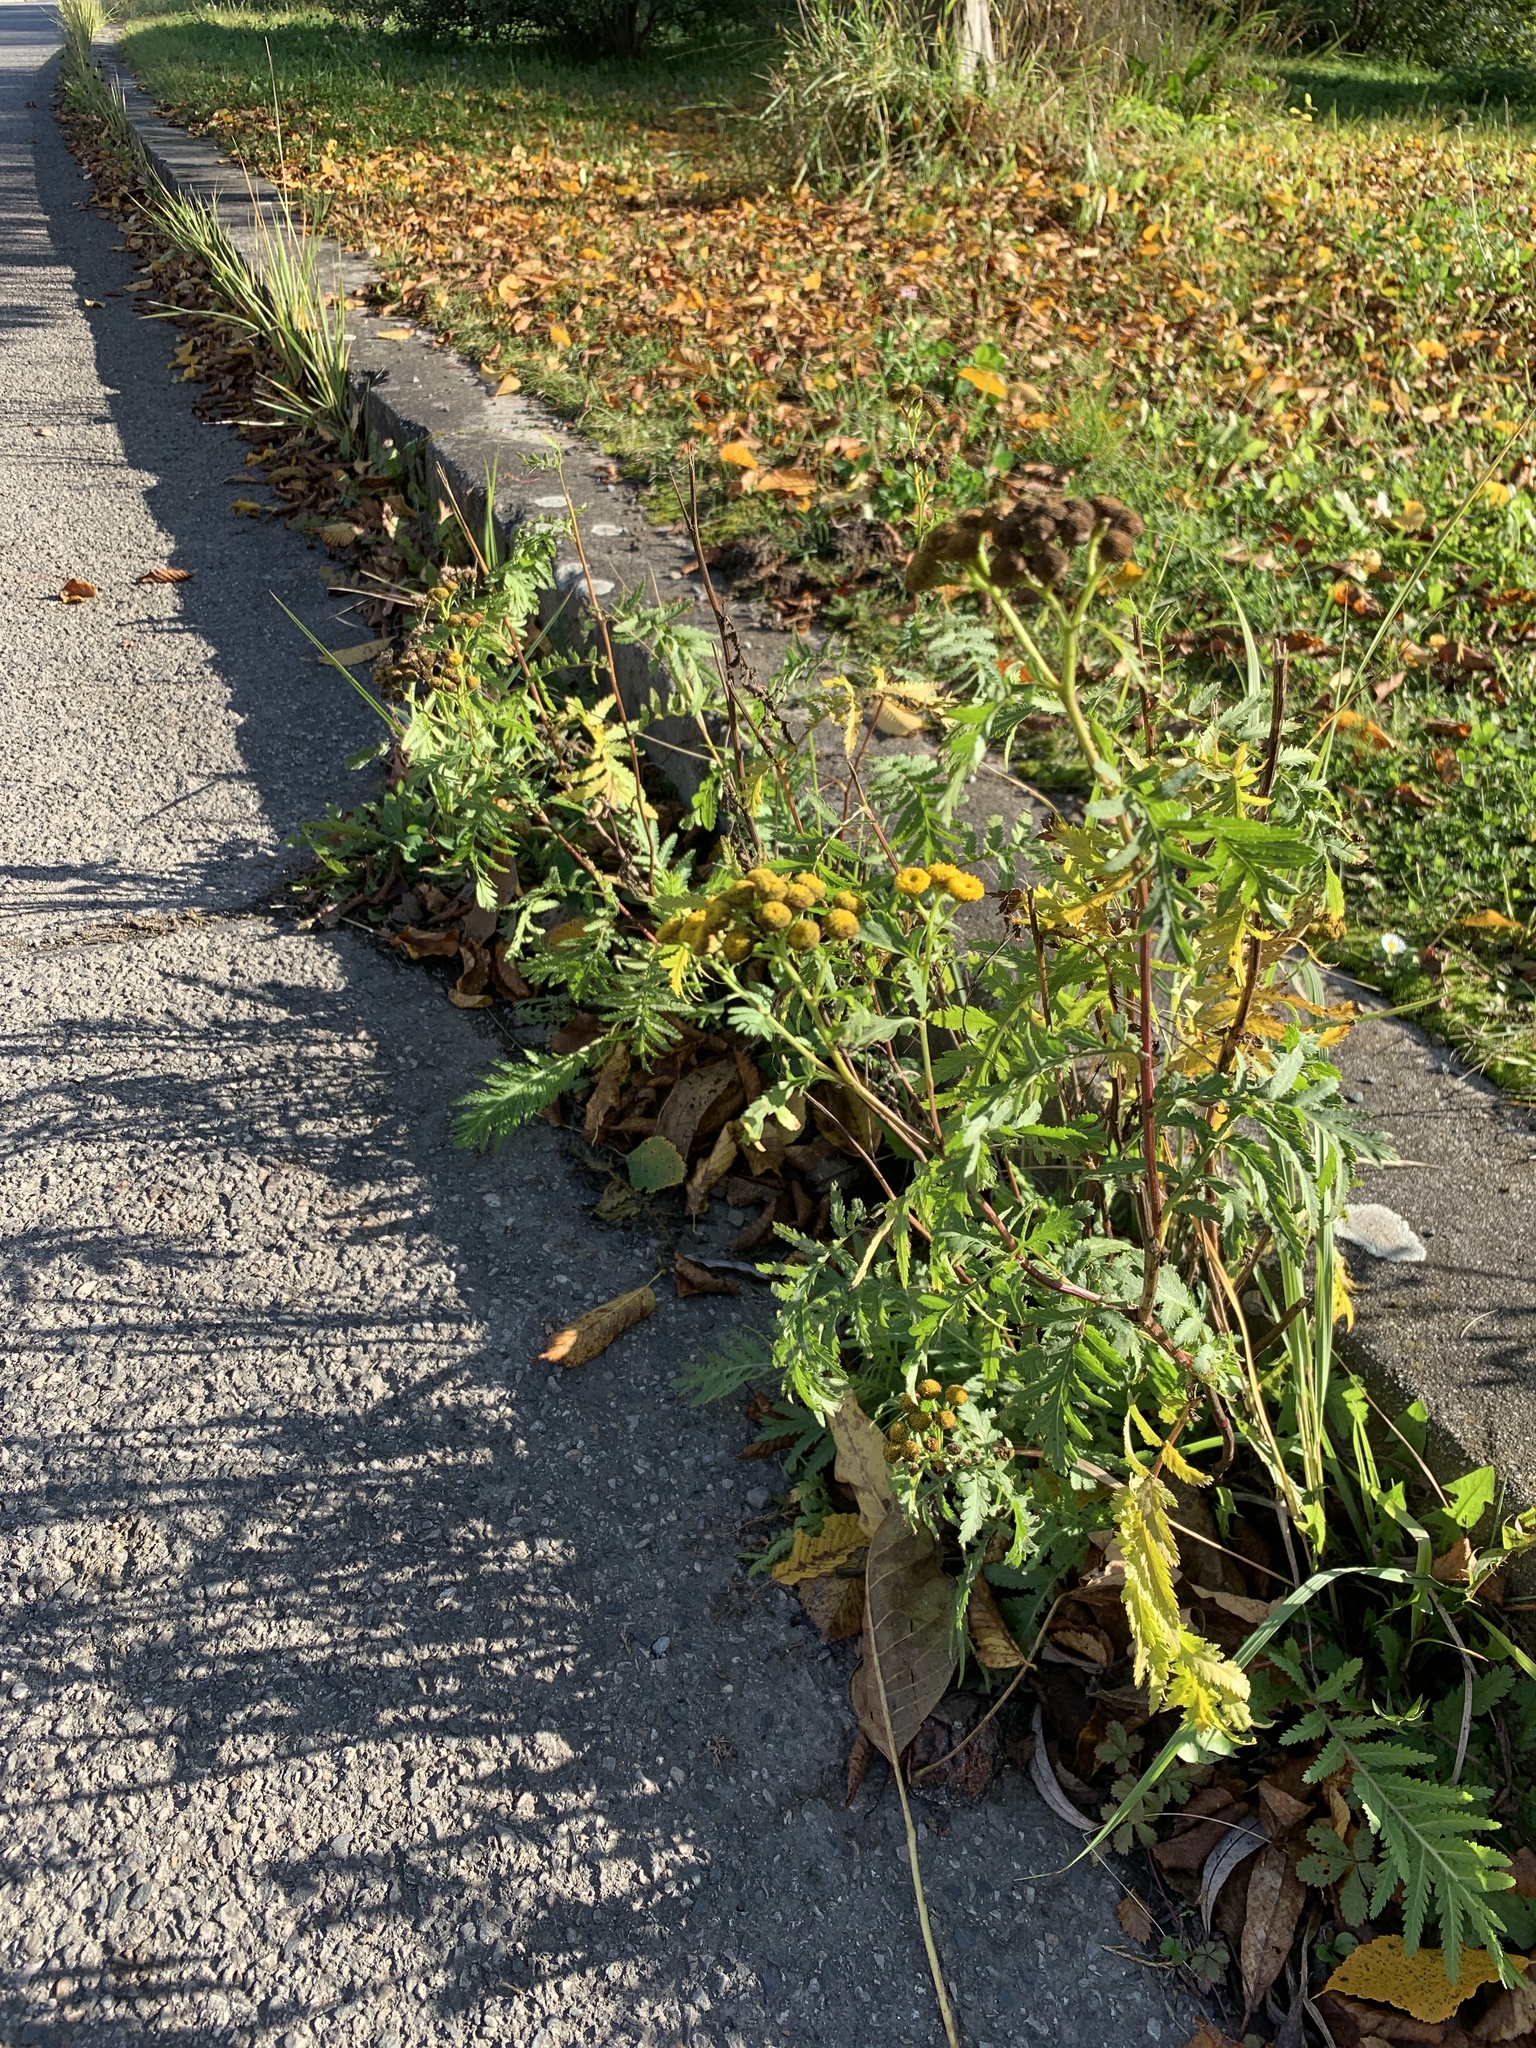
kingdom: Plantae
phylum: Tracheophyta
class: Magnoliopsida
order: Asterales
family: Asteraceae
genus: Tanacetum
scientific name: Tanacetum vulgare
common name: Common tansy
